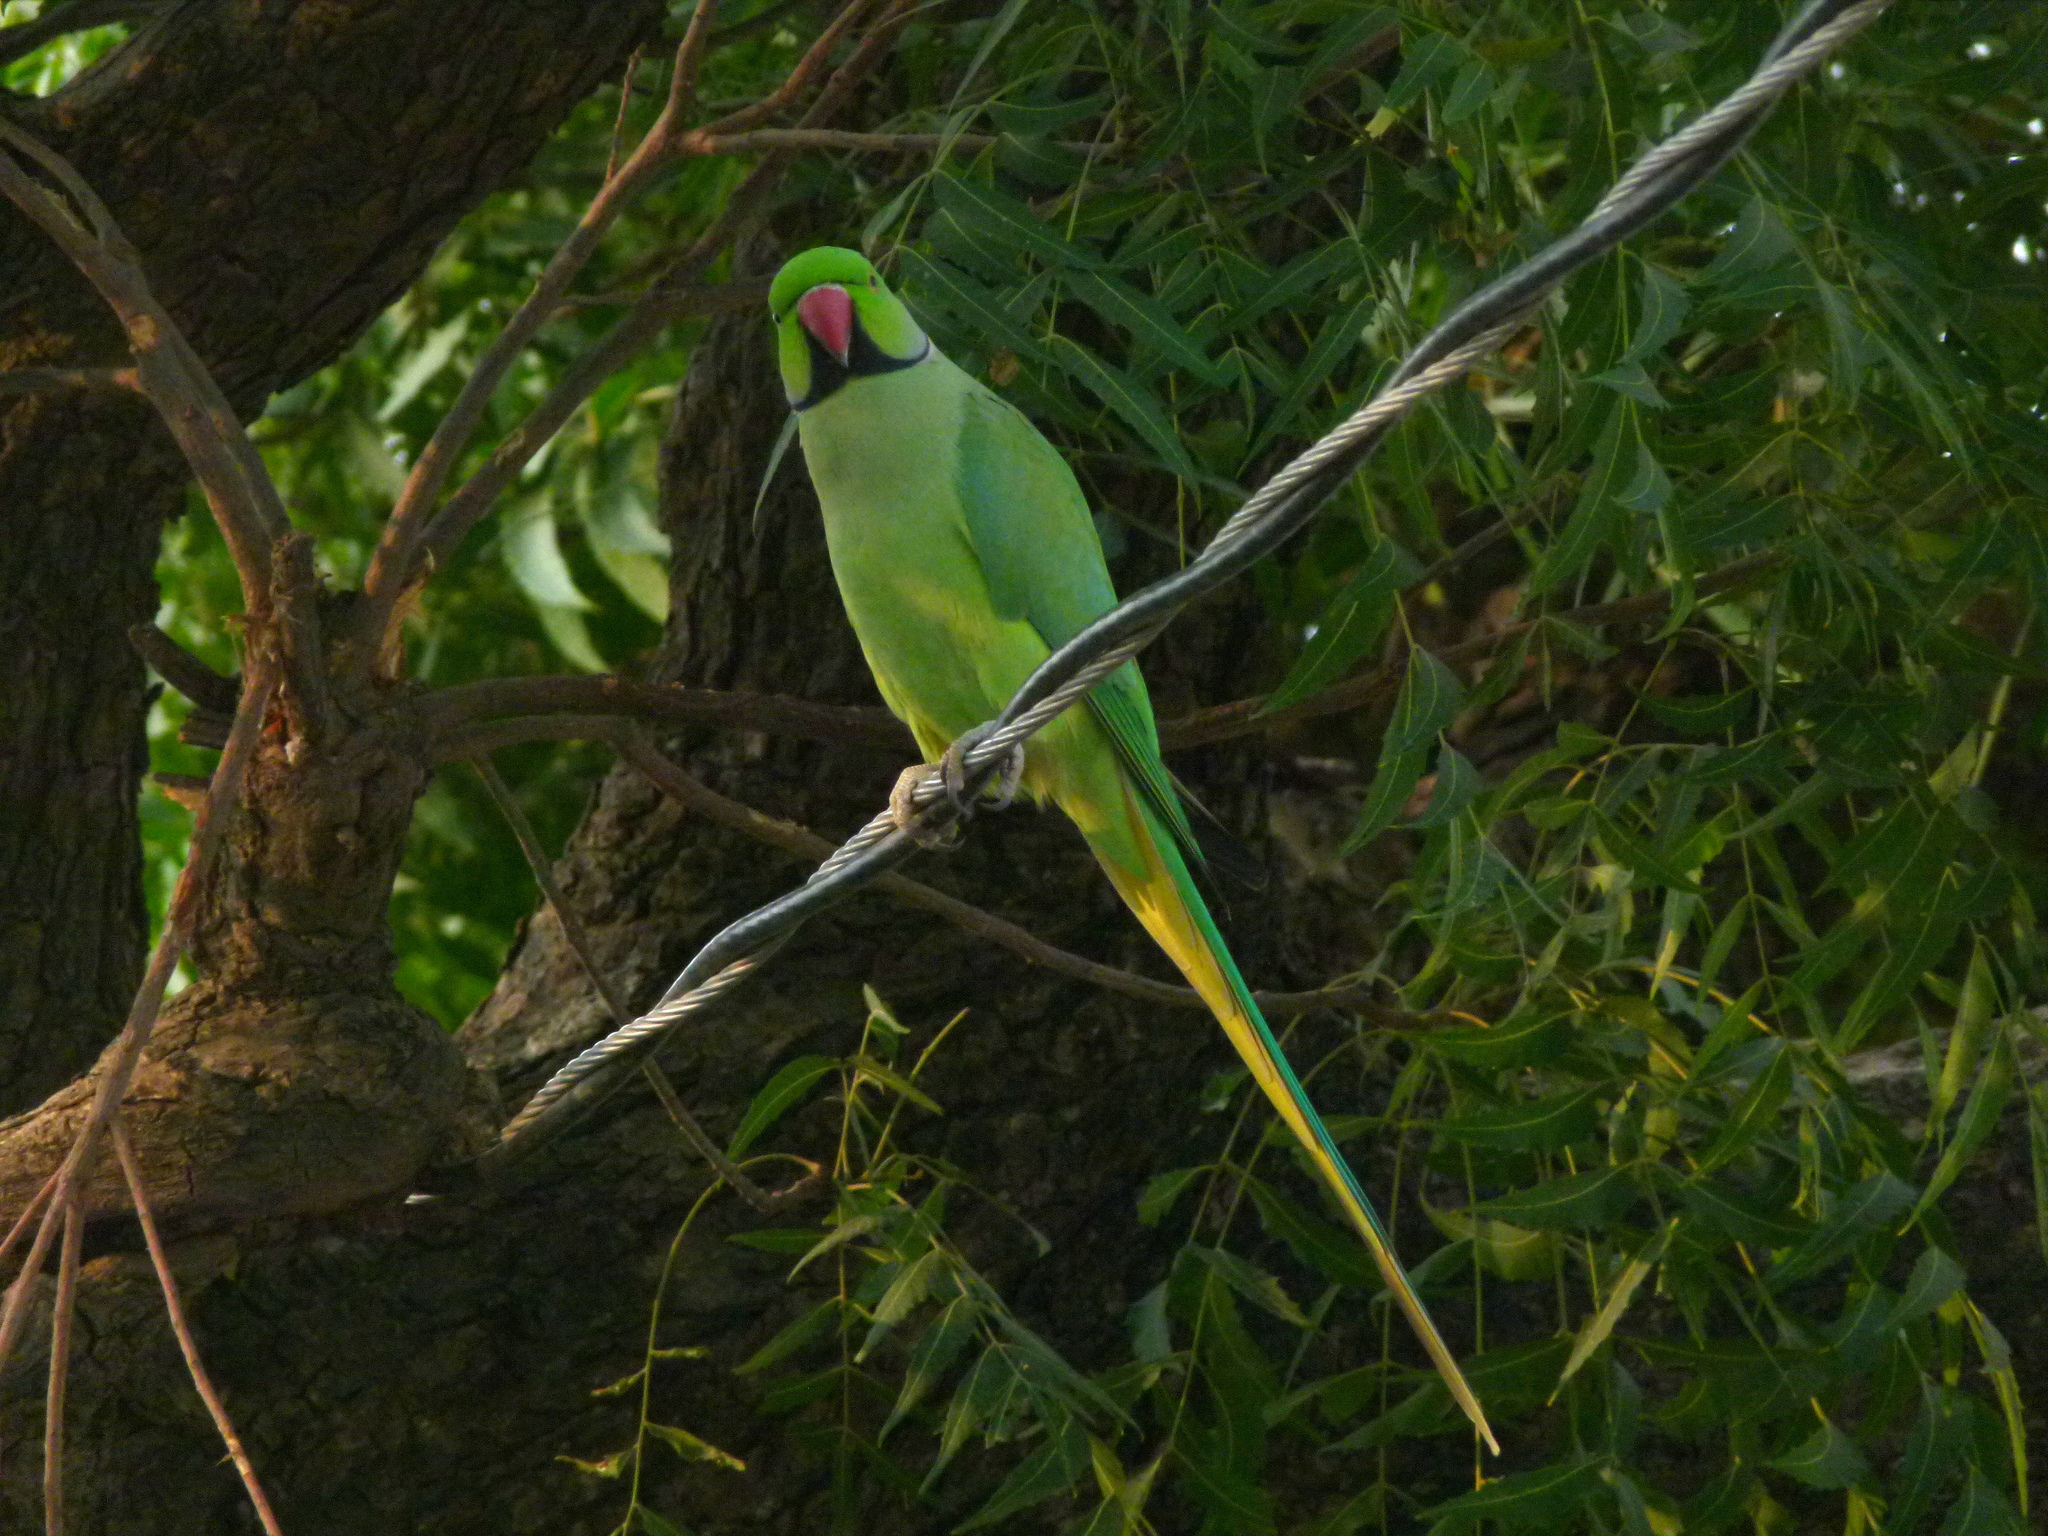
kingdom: Animalia
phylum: Chordata
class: Aves
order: Psittaciformes
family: Psittacidae
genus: Psittacula
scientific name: Psittacula krameri
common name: Rose-ringed parakeet
